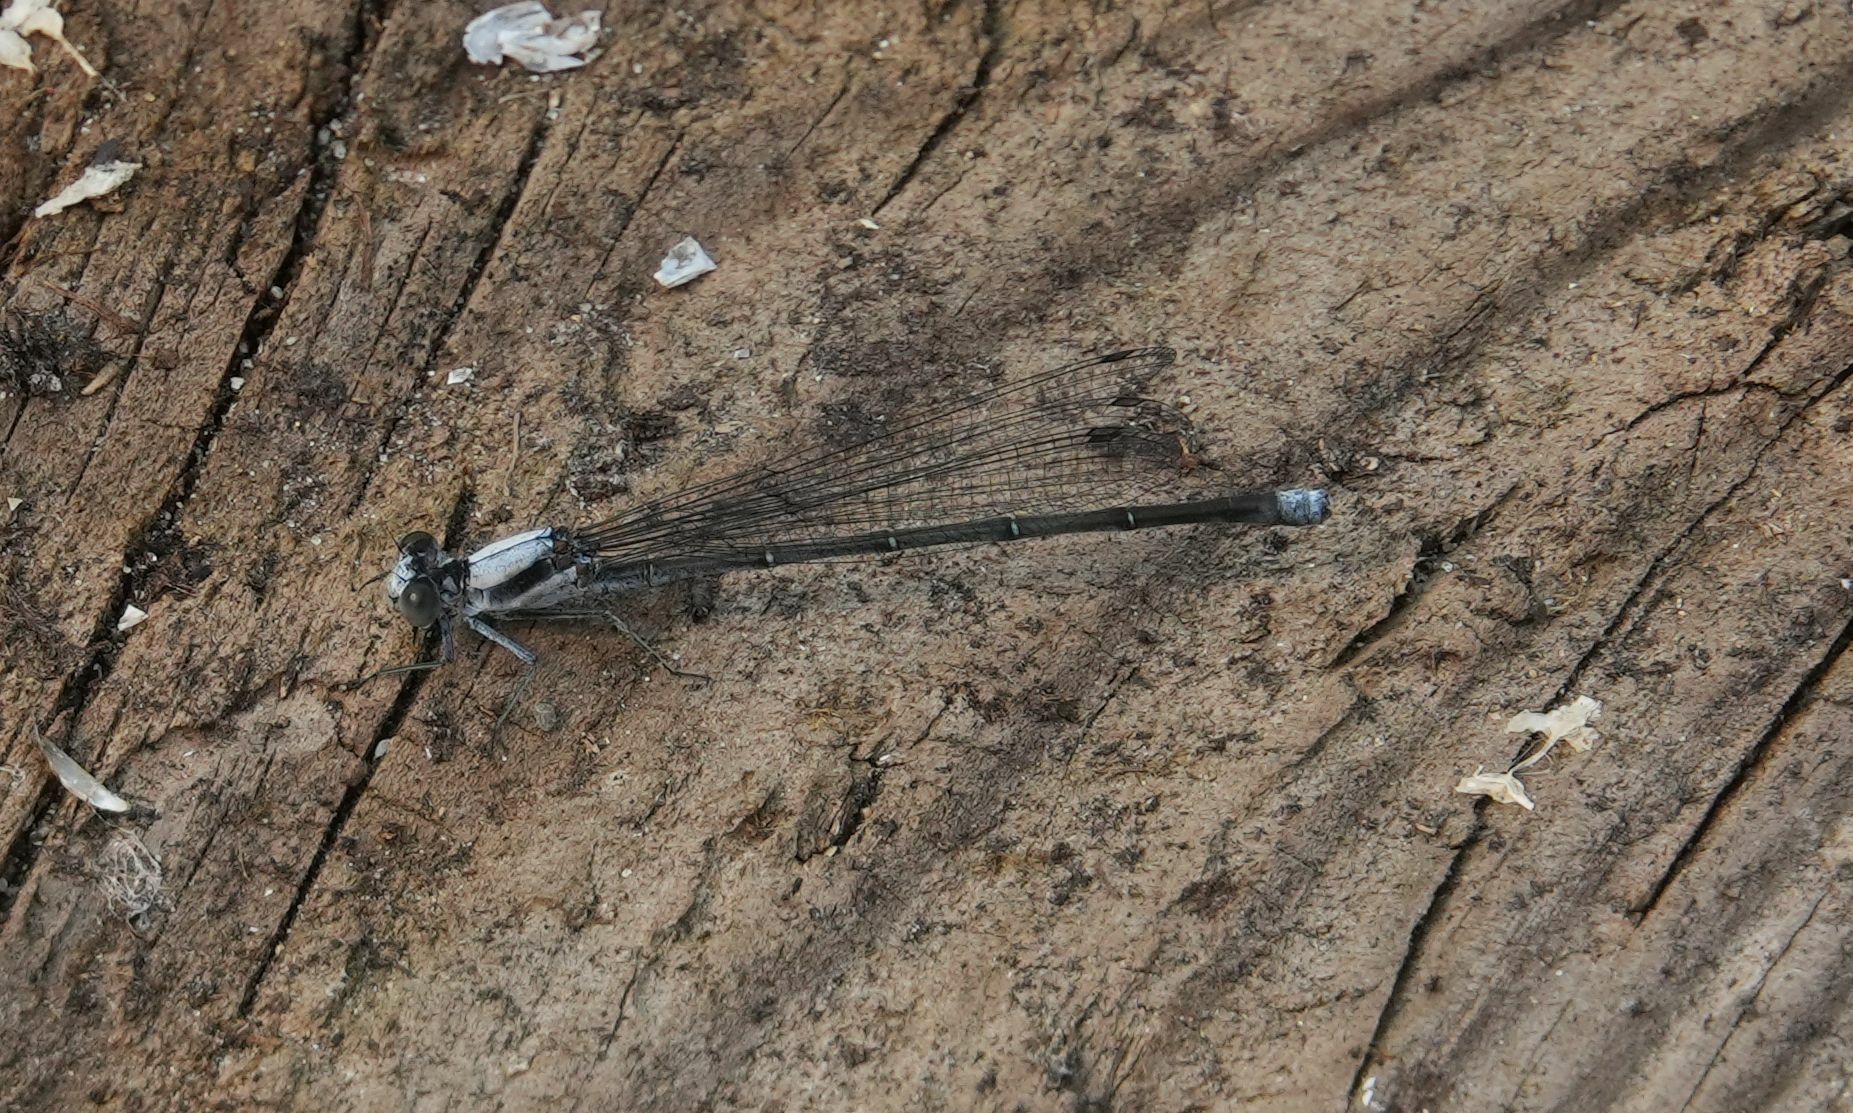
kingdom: Animalia
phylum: Arthropoda
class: Insecta
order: Odonata
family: Coenagrionidae
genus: Argia
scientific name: Argia moesta
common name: Powdered dancer
